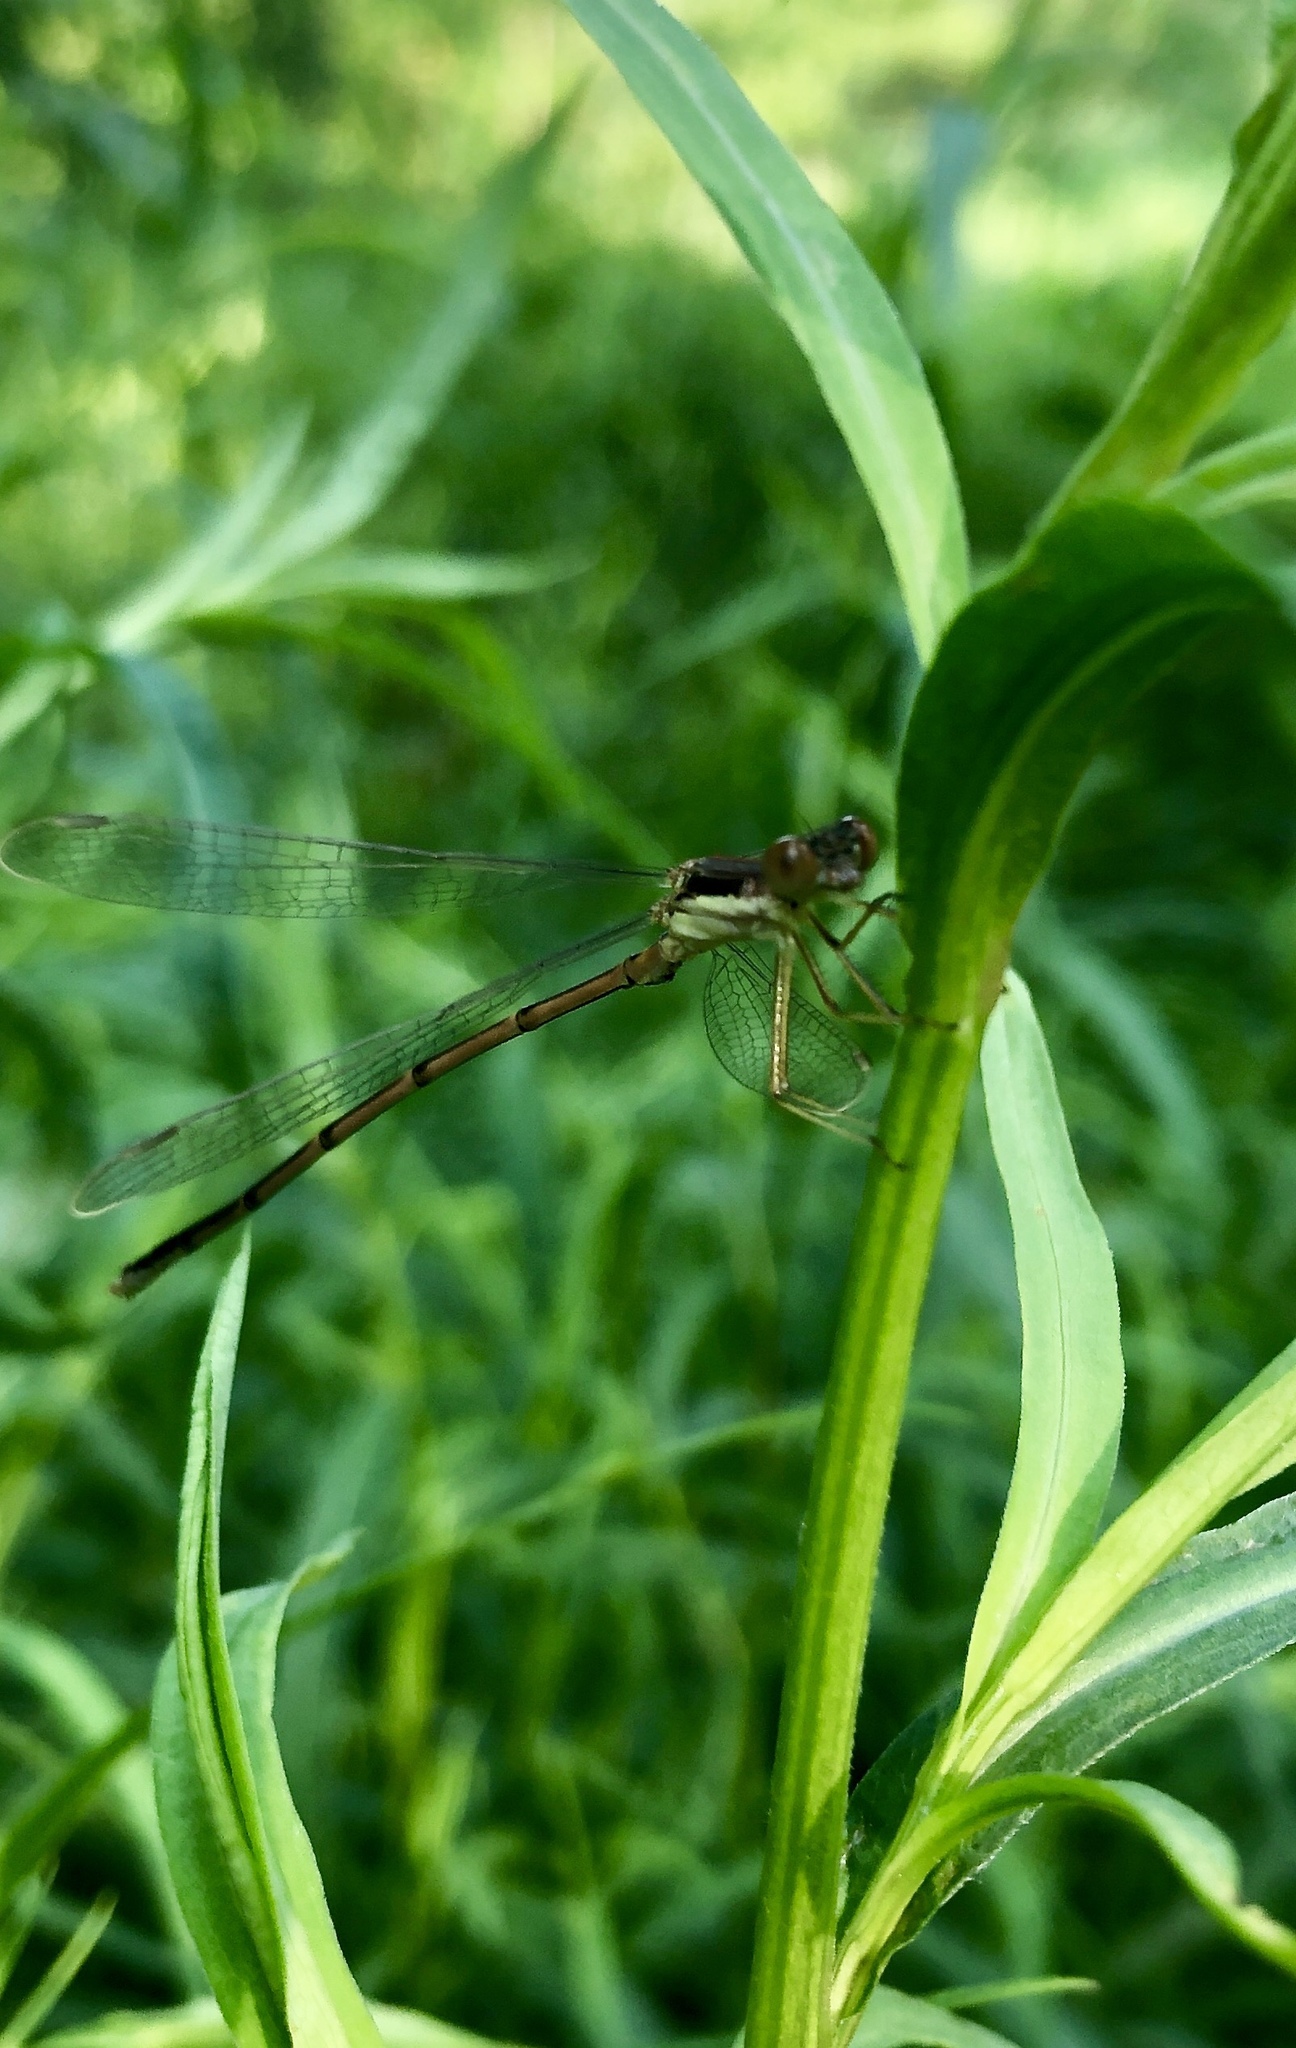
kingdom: Animalia
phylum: Arthropoda
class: Insecta
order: Odonata
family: Lestidae
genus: Lestes
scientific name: Lestes rectangularis
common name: Slender spreadwing
